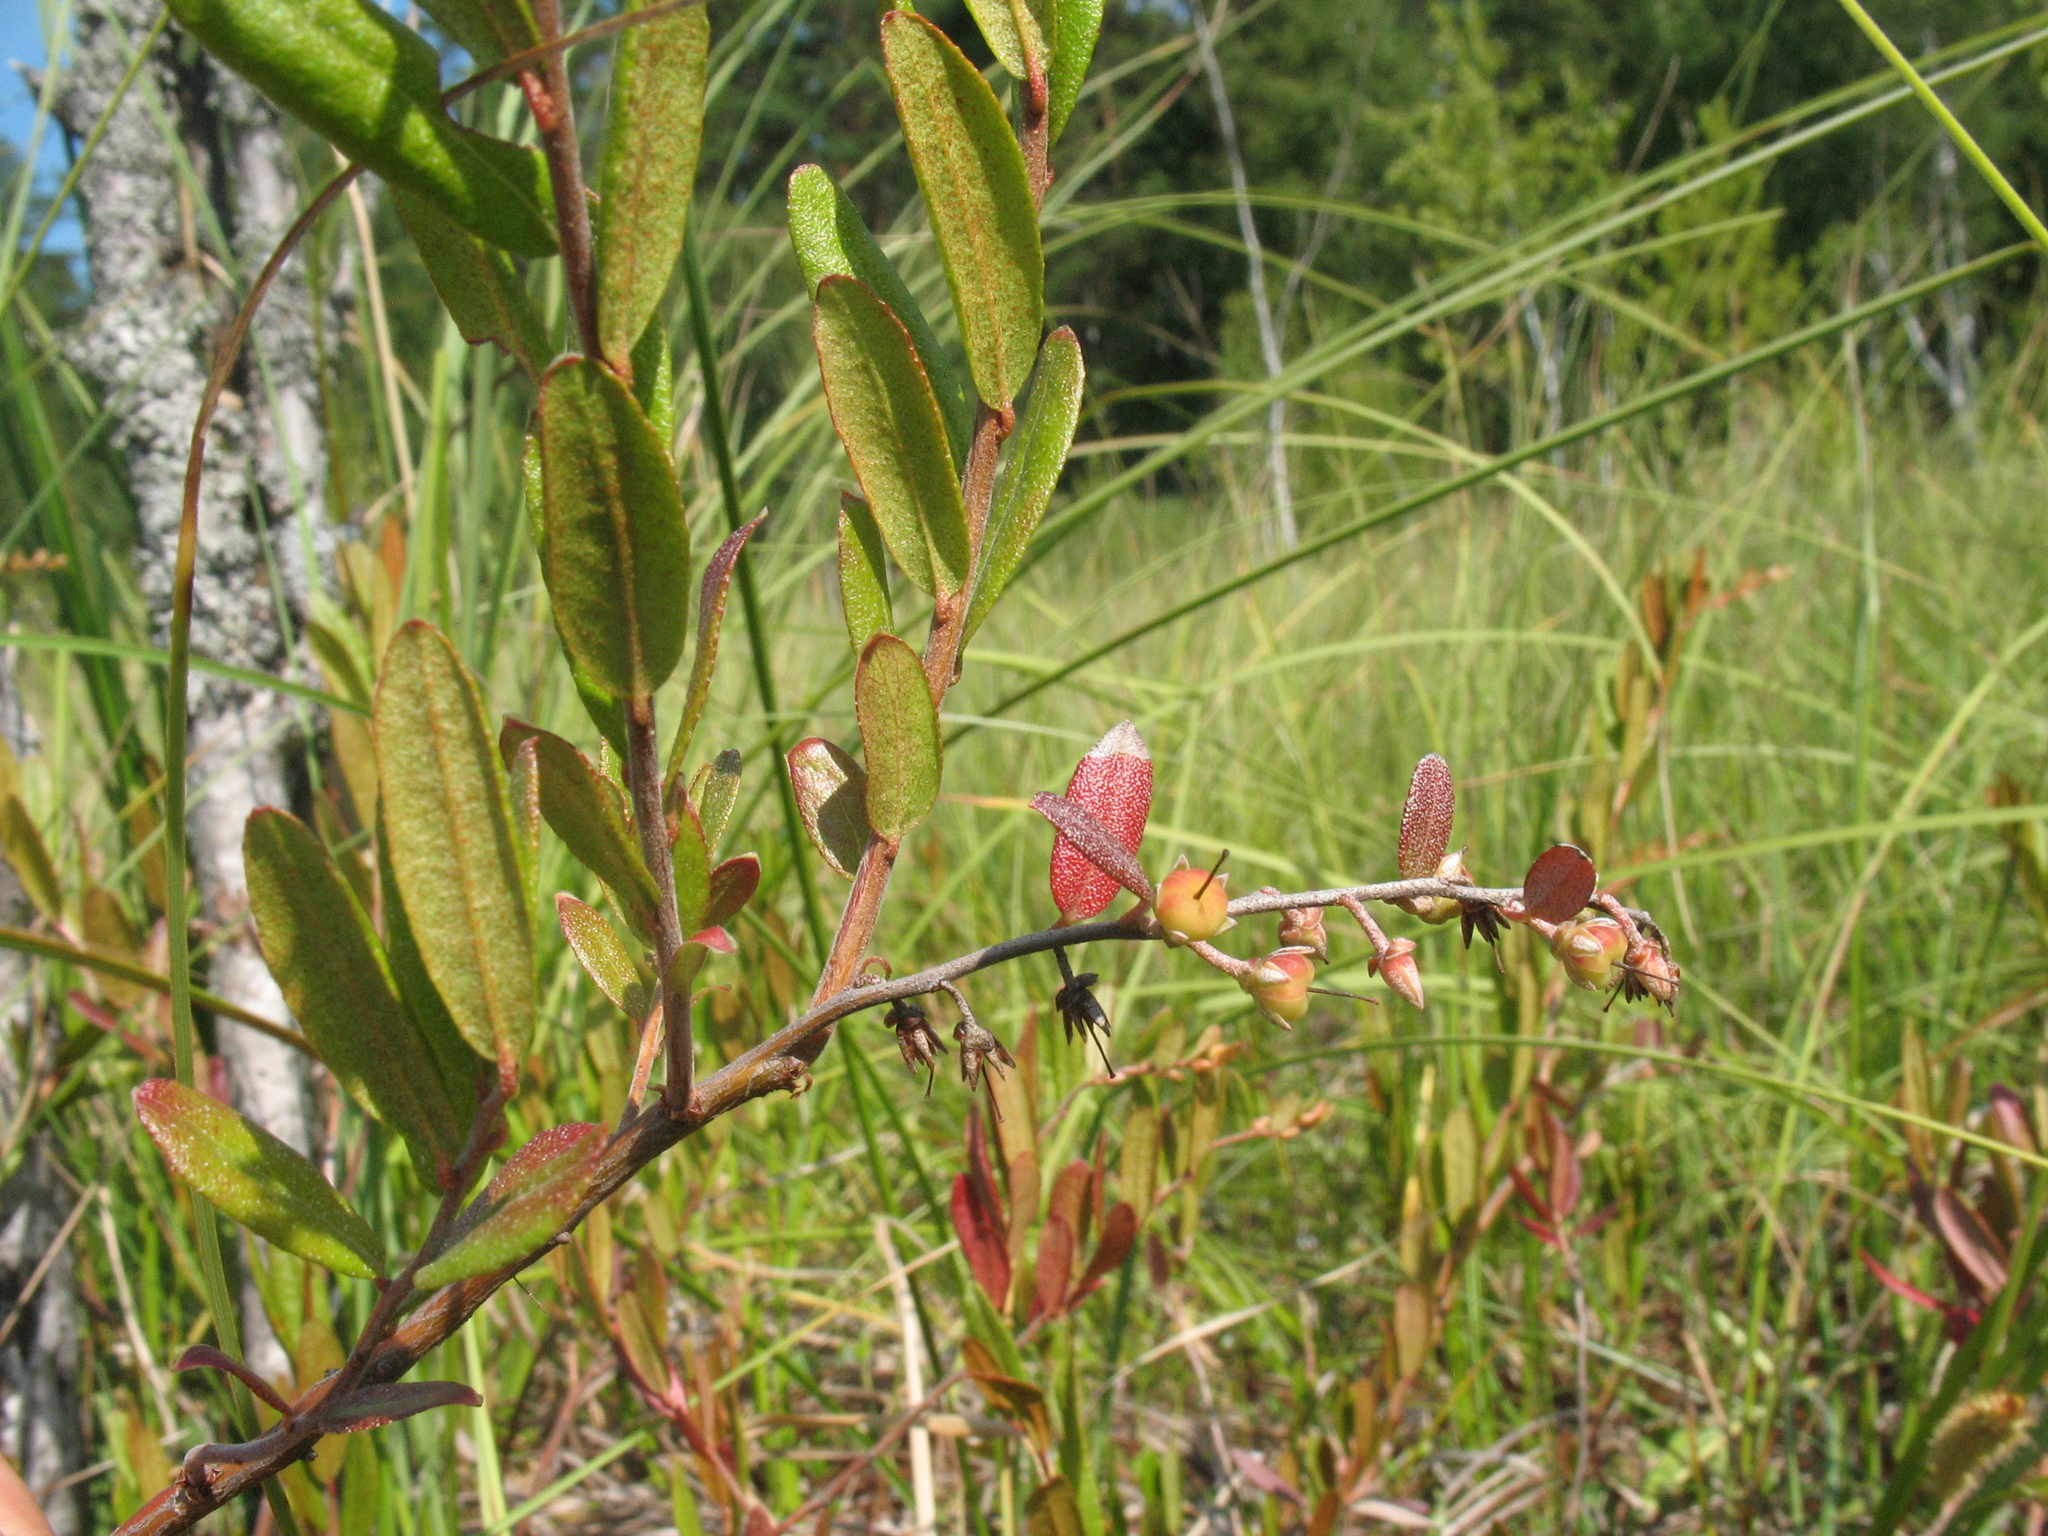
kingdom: Plantae
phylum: Tracheophyta
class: Magnoliopsida
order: Ericales
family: Ericaceae
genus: Chamaedaphne
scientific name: Chamaedaphne calyculata
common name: Leatherleaf
